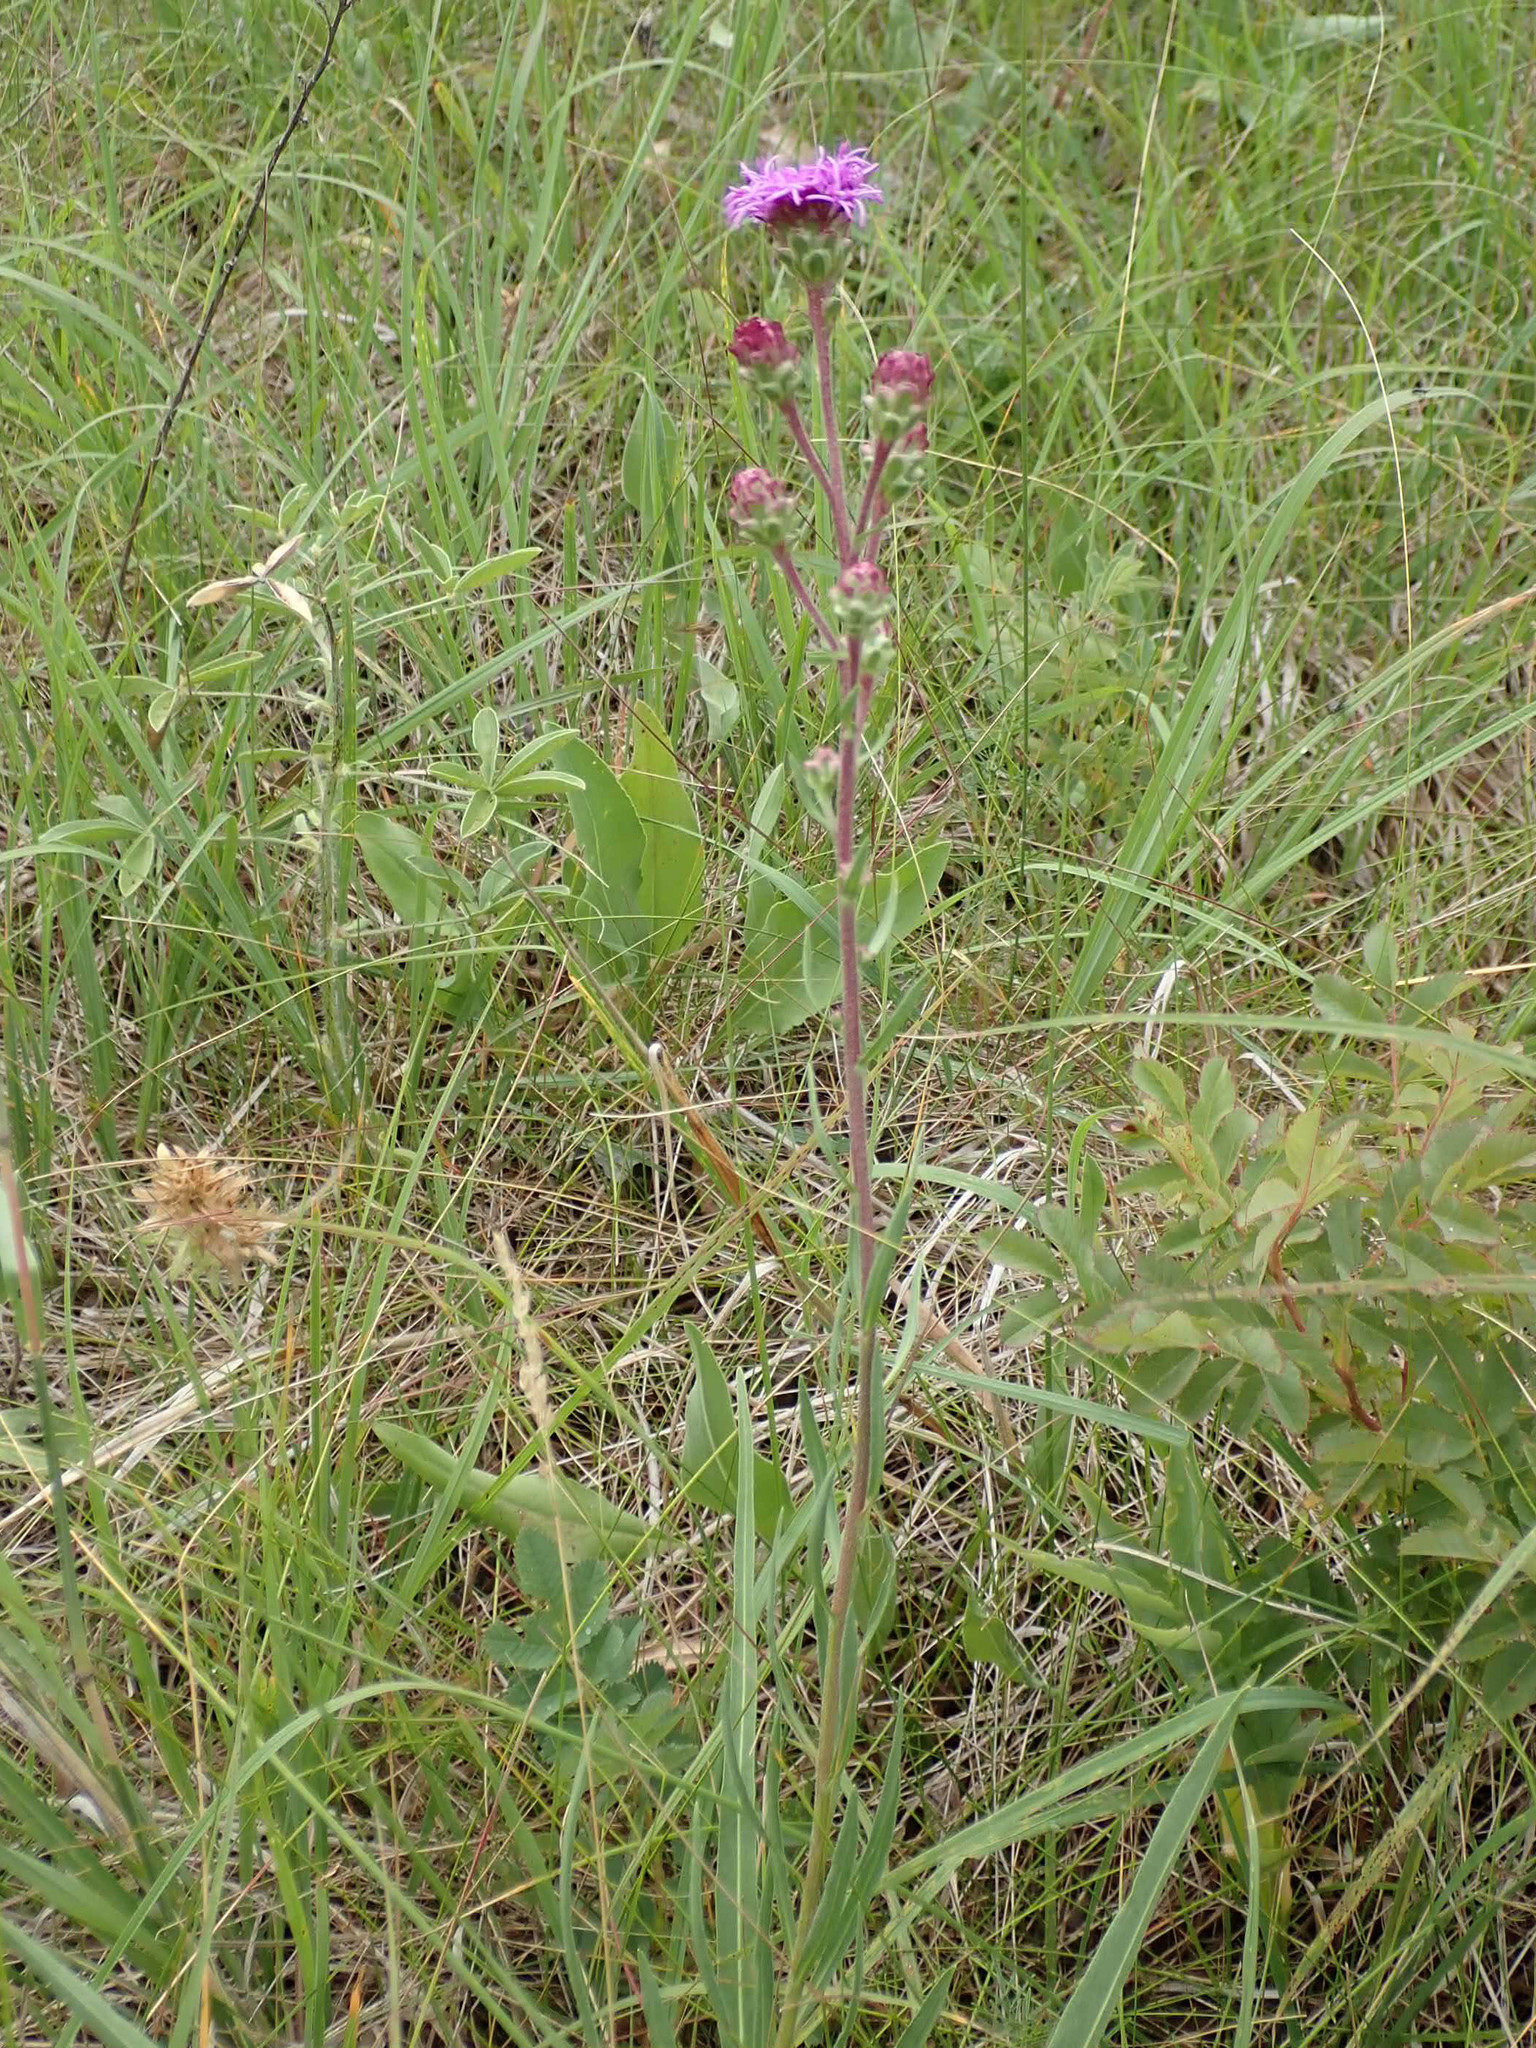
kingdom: Plantae
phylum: Tracheophyta
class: Magnoliopsida
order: Asterales
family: Asteraceae
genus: Liatris
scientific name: Liatris ligulistylis
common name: Northern plains gayfeather
